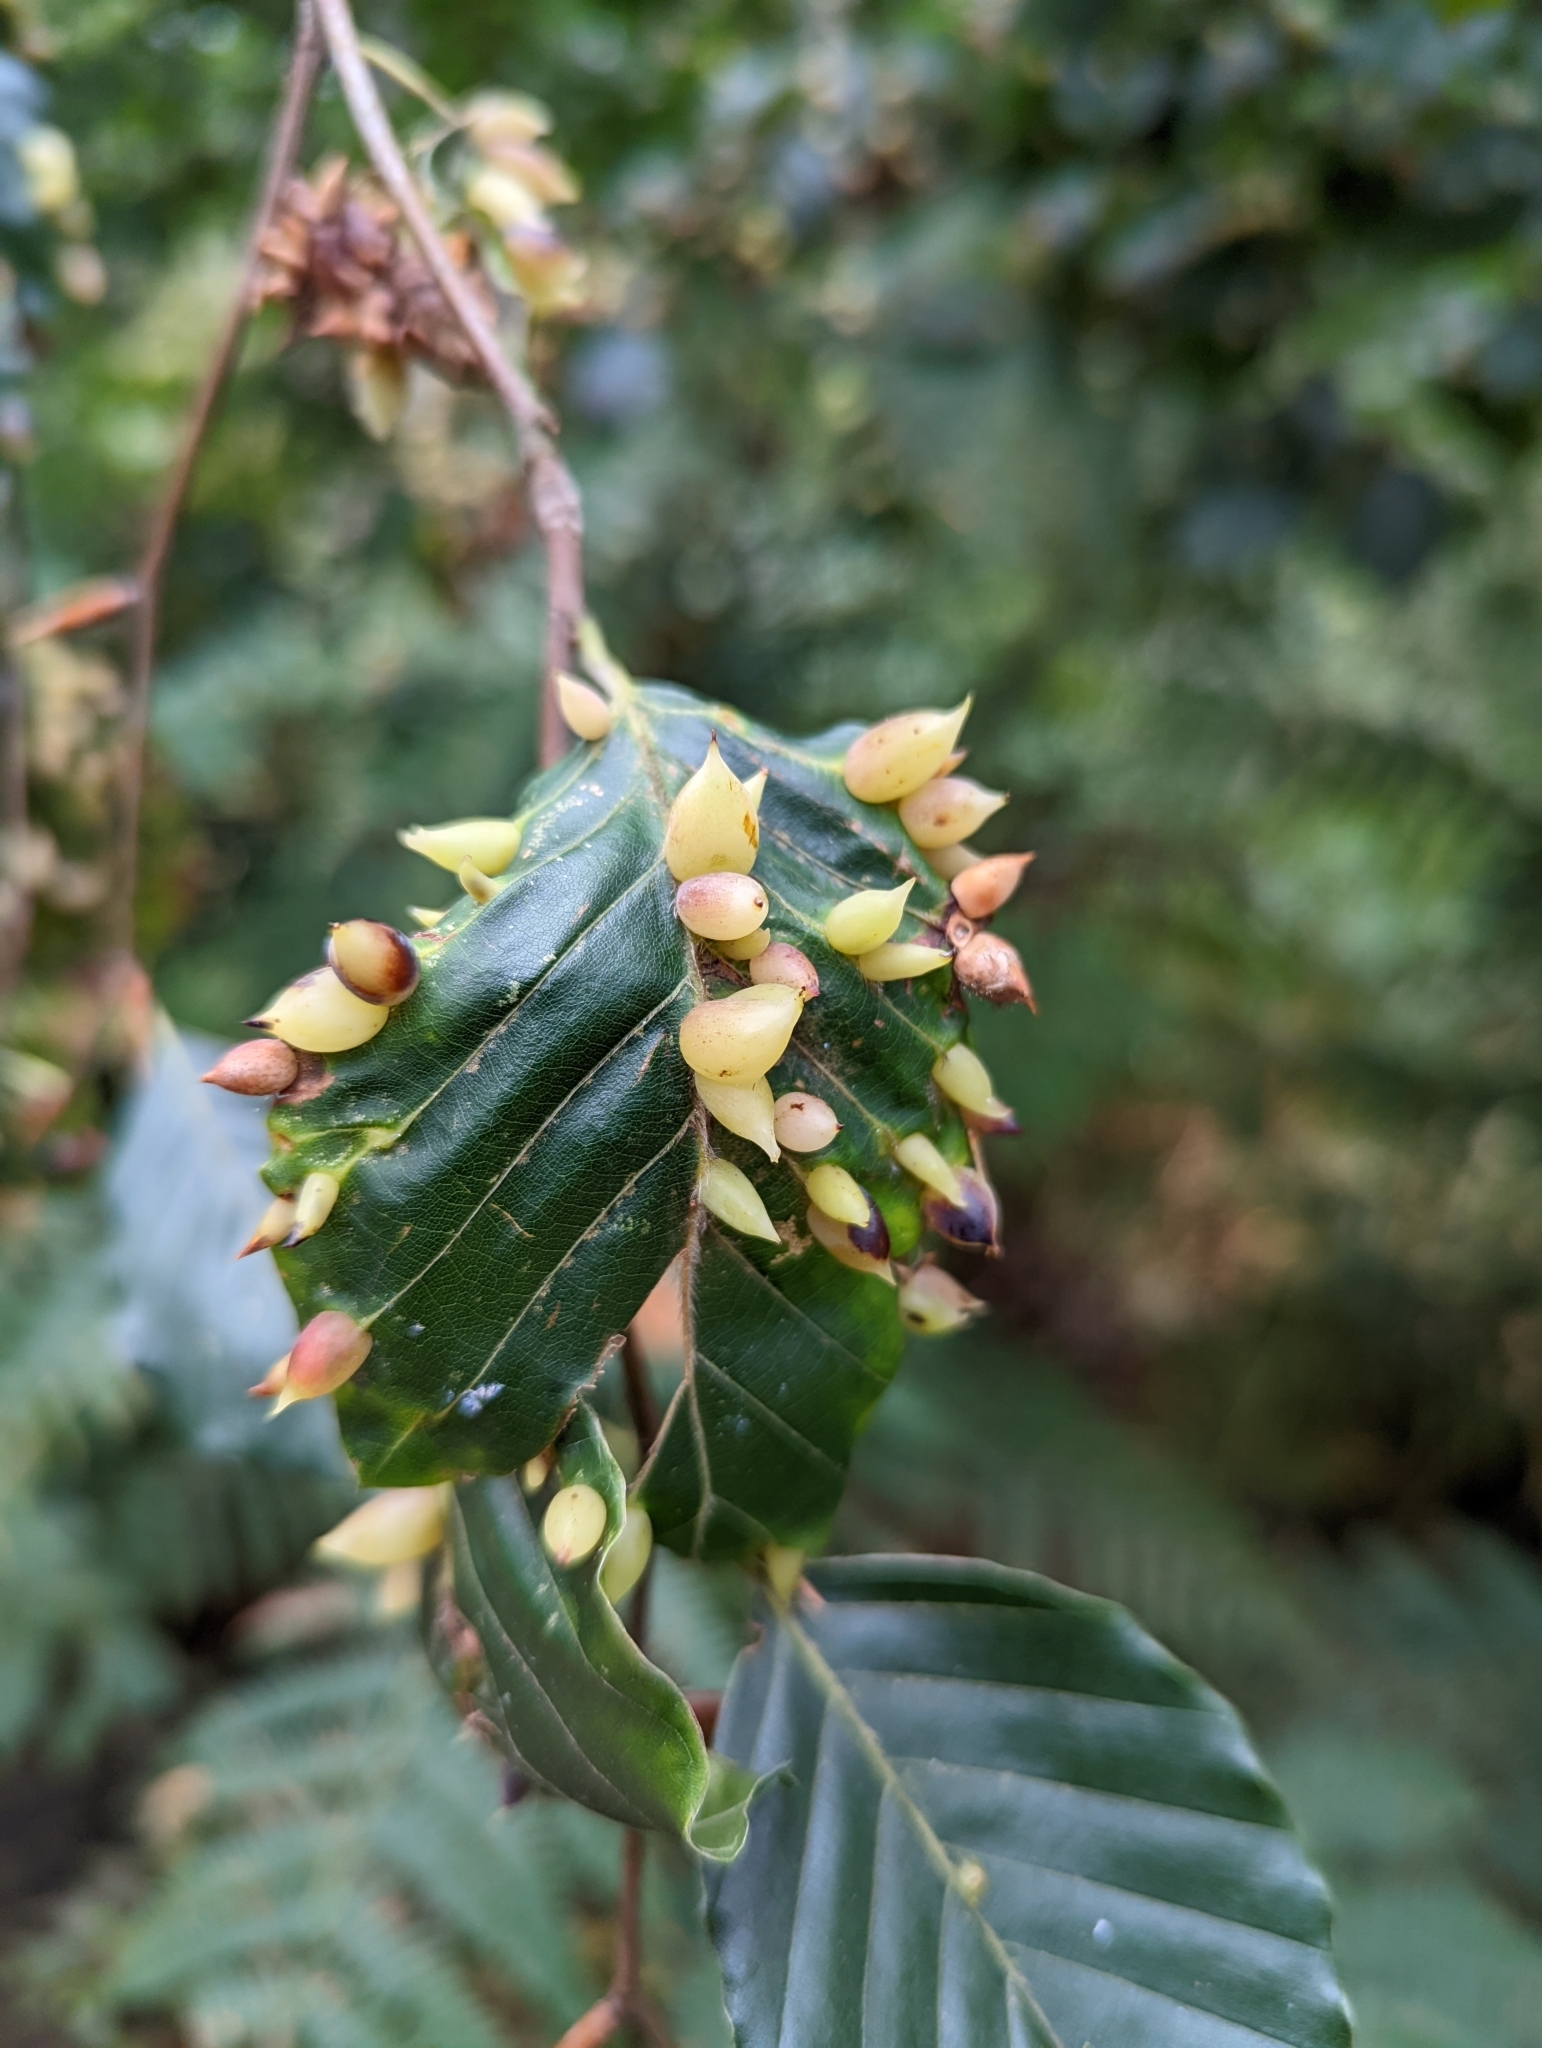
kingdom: Animalia
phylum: Arthropoda
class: Insecta
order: Diptera
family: Cecidomyiidae
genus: Mikiola
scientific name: Mikiola fagi
